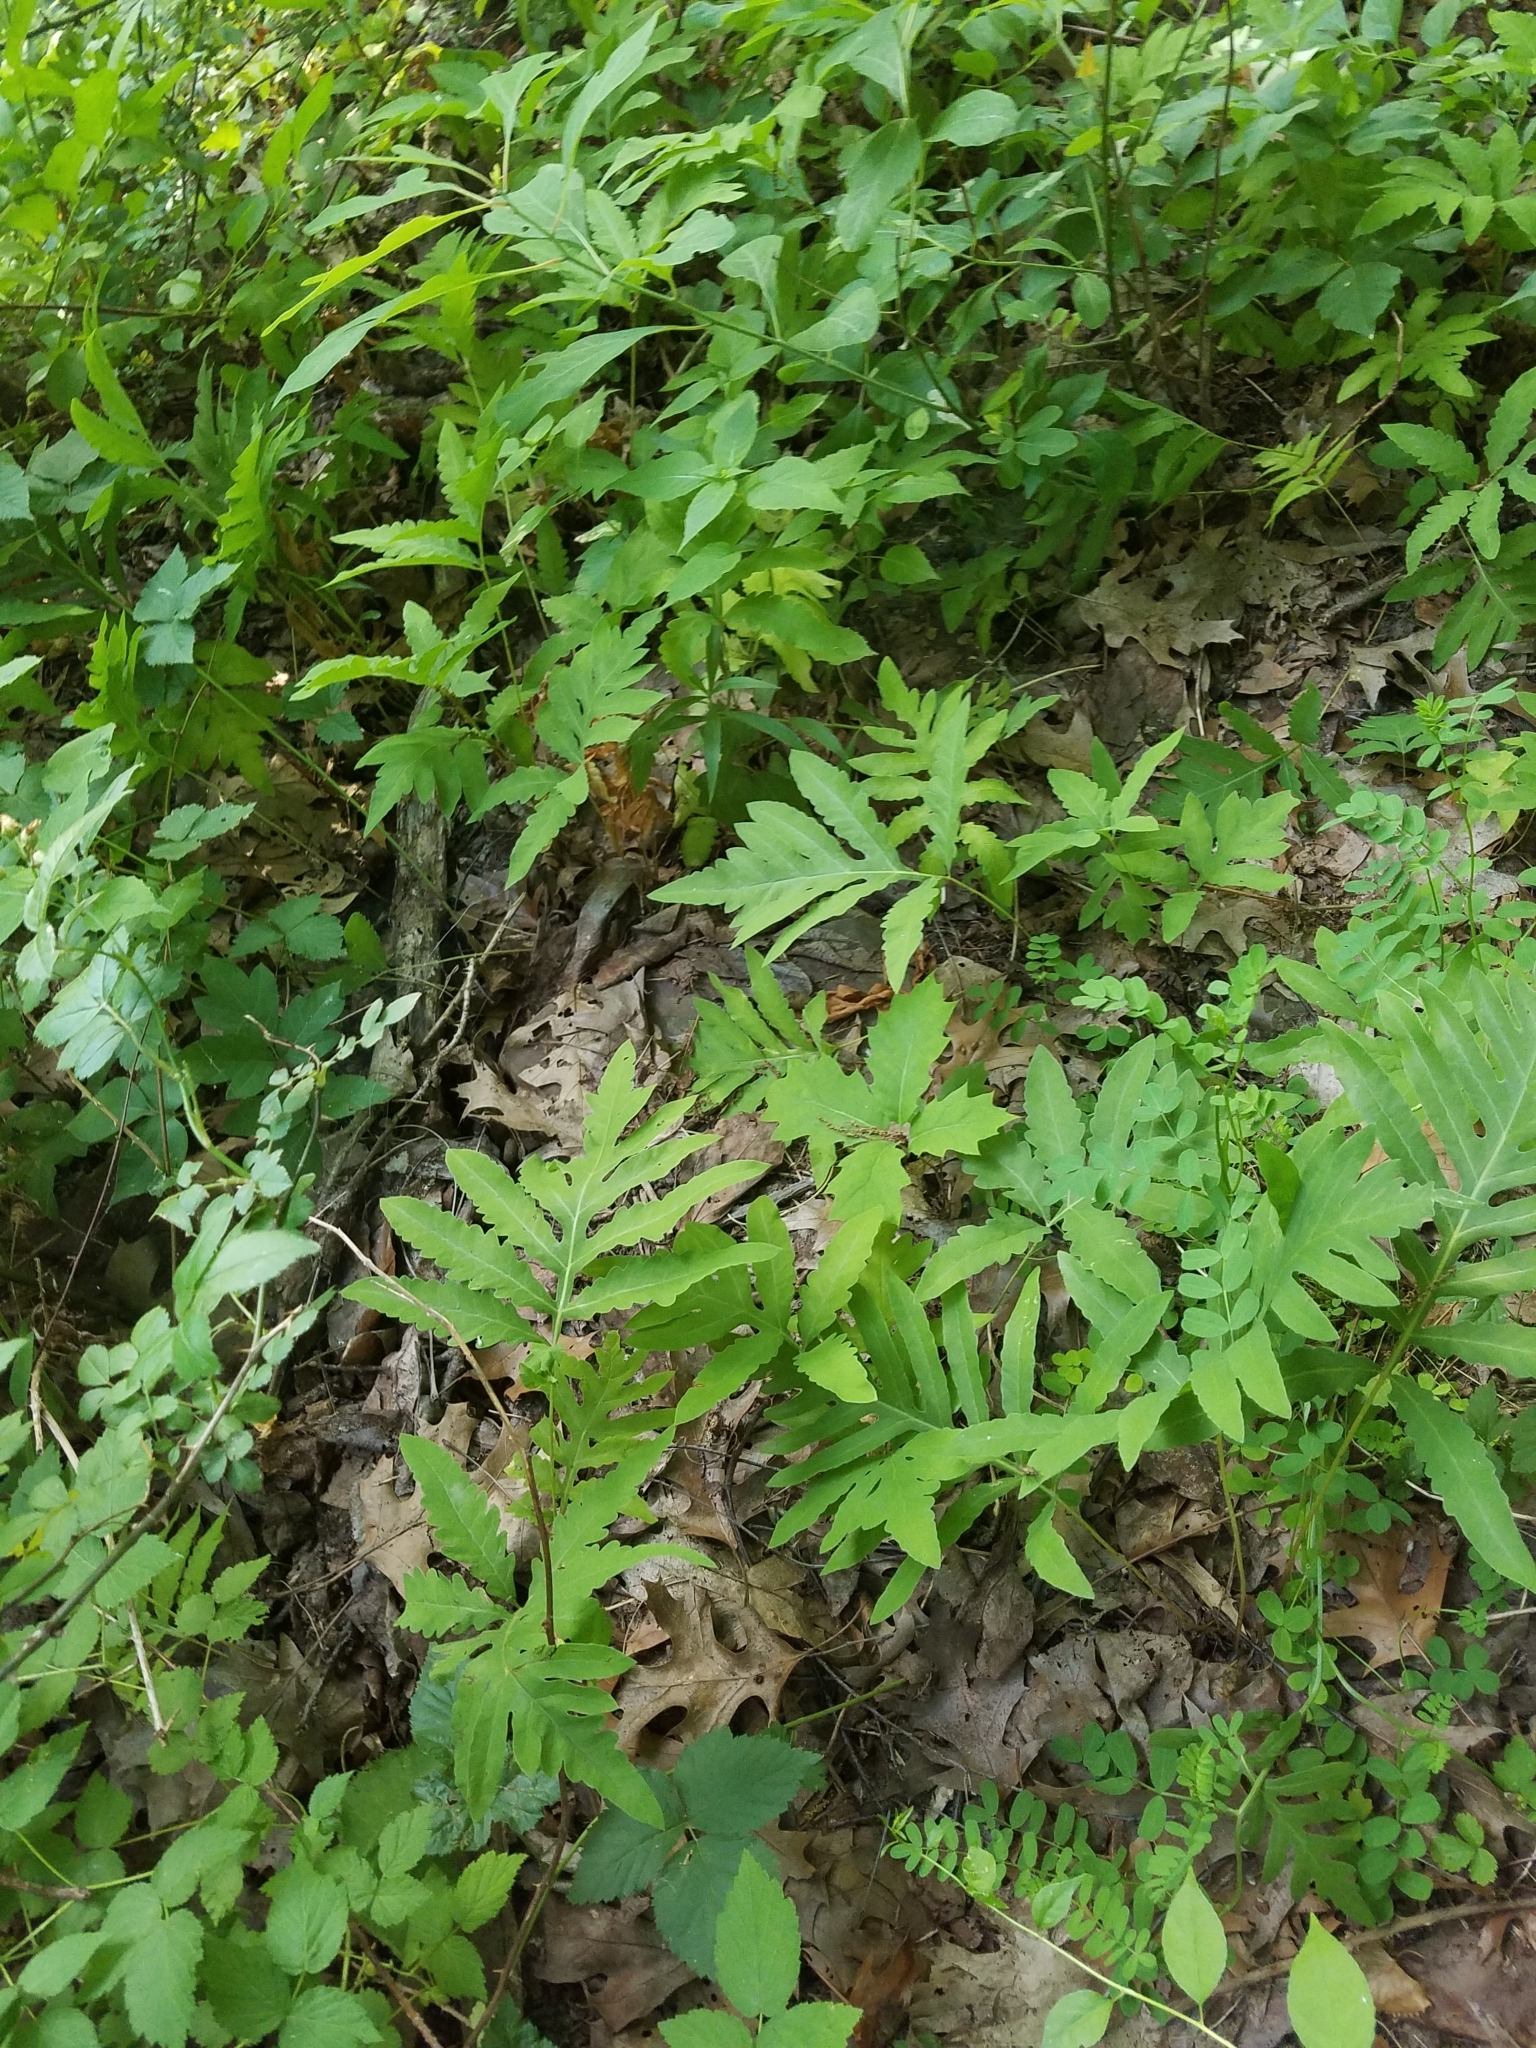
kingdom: Plantae
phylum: Tracheophyta
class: Polypodiopsida
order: Polypodiales
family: Onocleaceae
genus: Onoclea
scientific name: Onoclea sensibilis
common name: Sensitive fern
